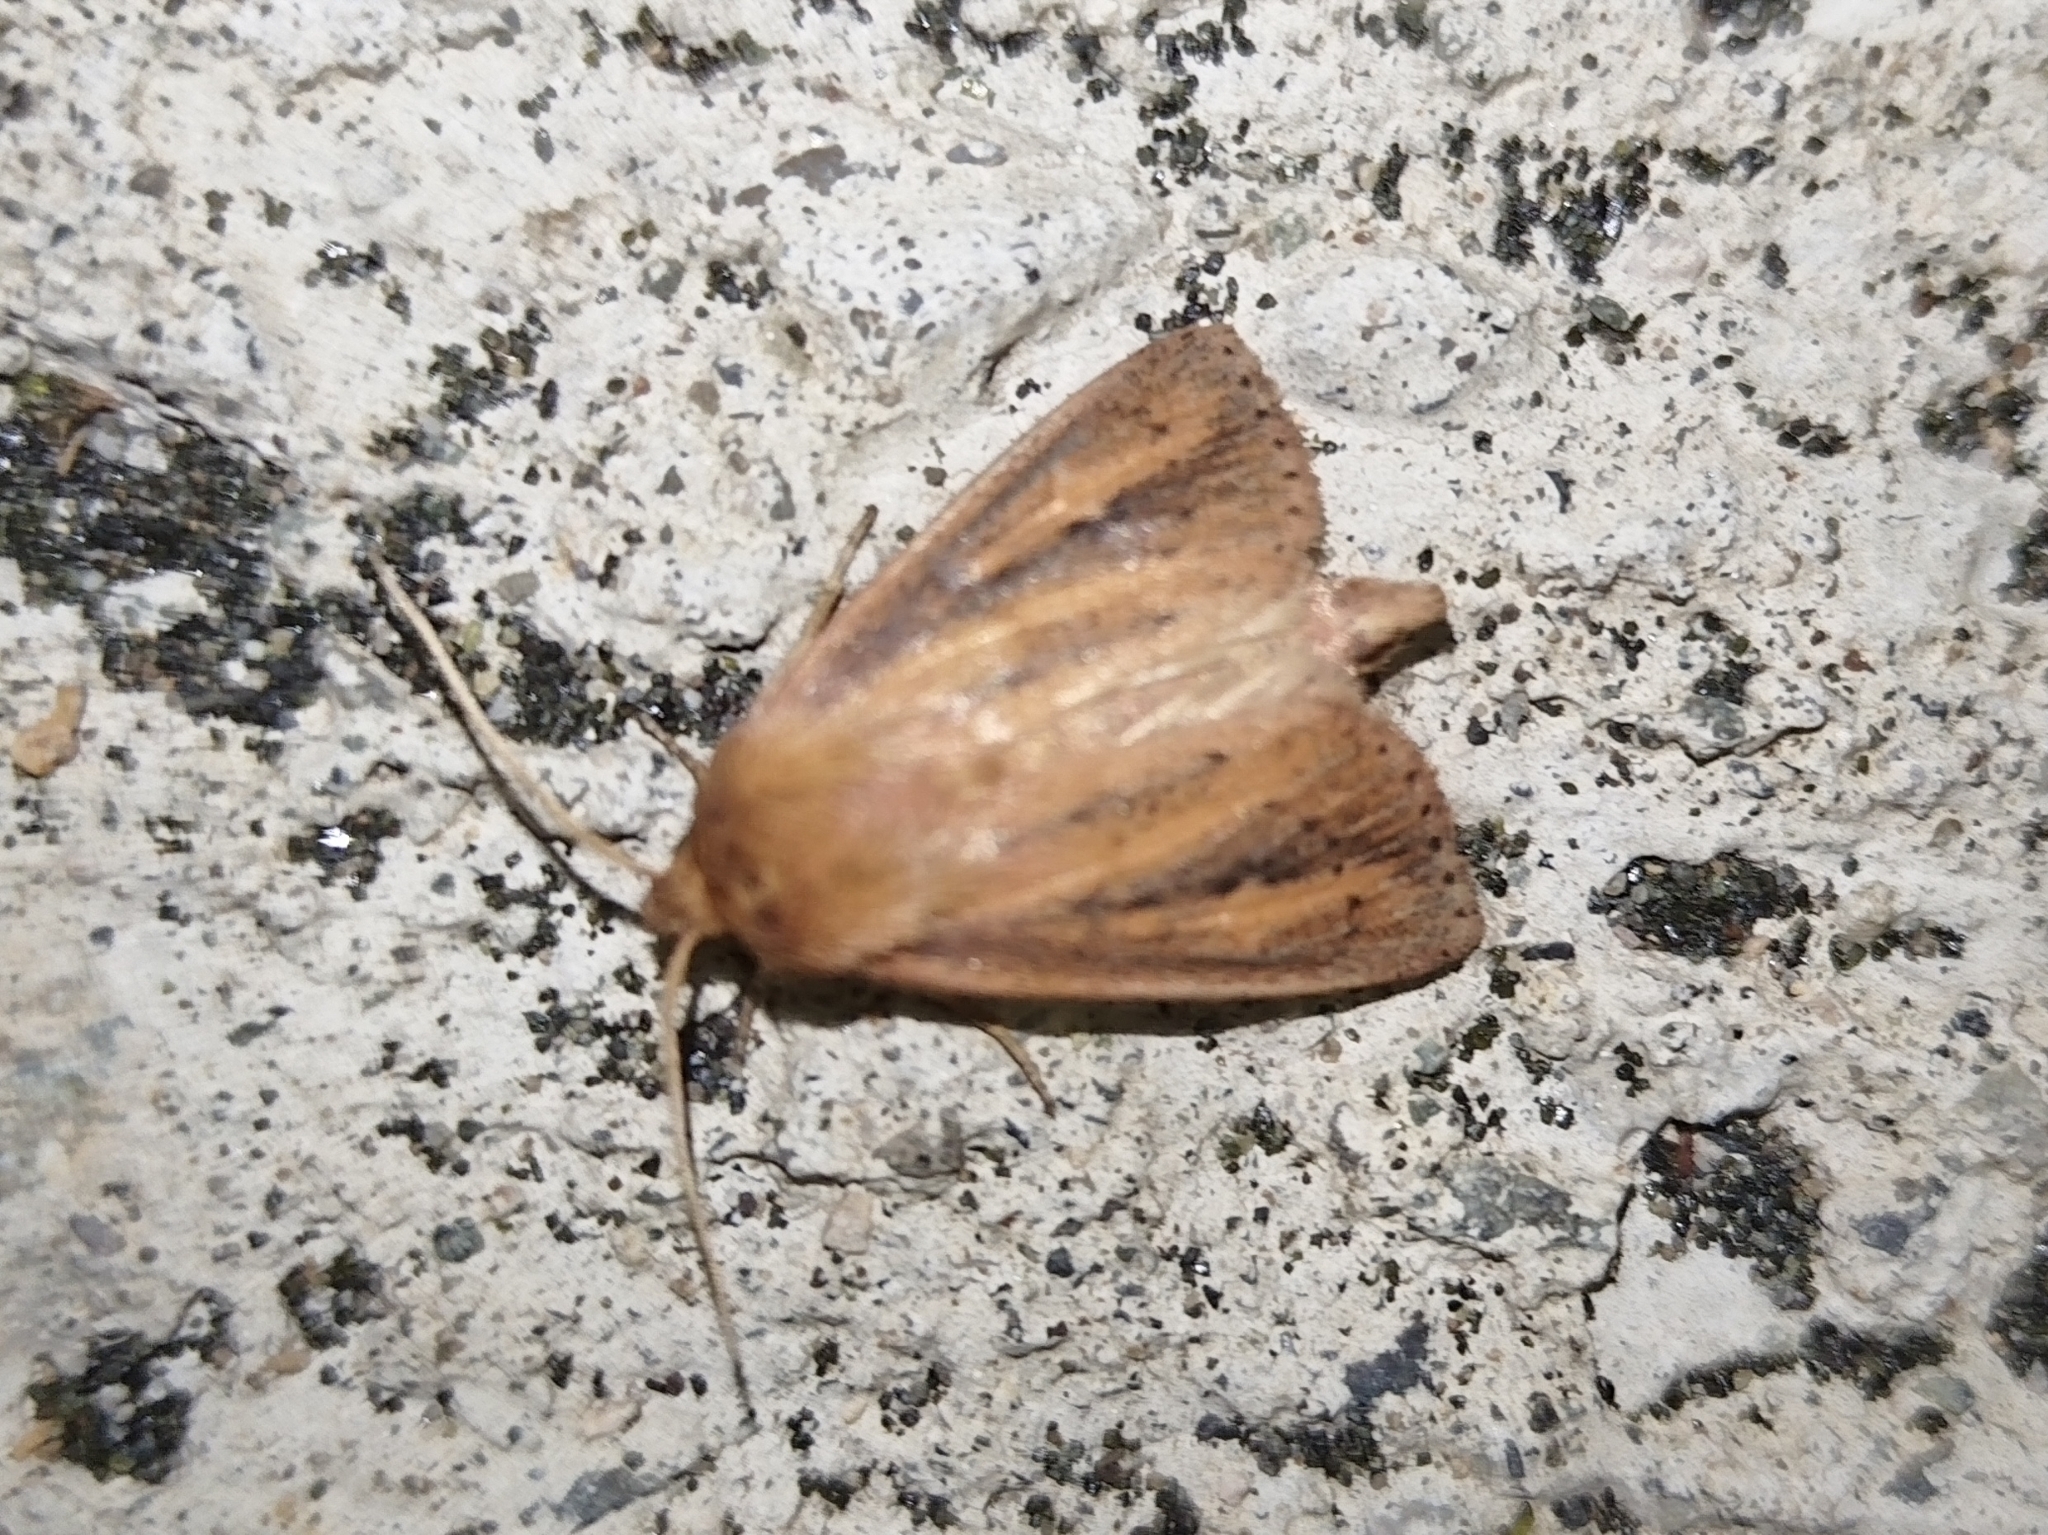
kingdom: Animalia
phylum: Arthropoda
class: Insecta
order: Lepidoptera
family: Noctuidae
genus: Globia
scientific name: Globia sparganii
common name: Webb's wainscot
